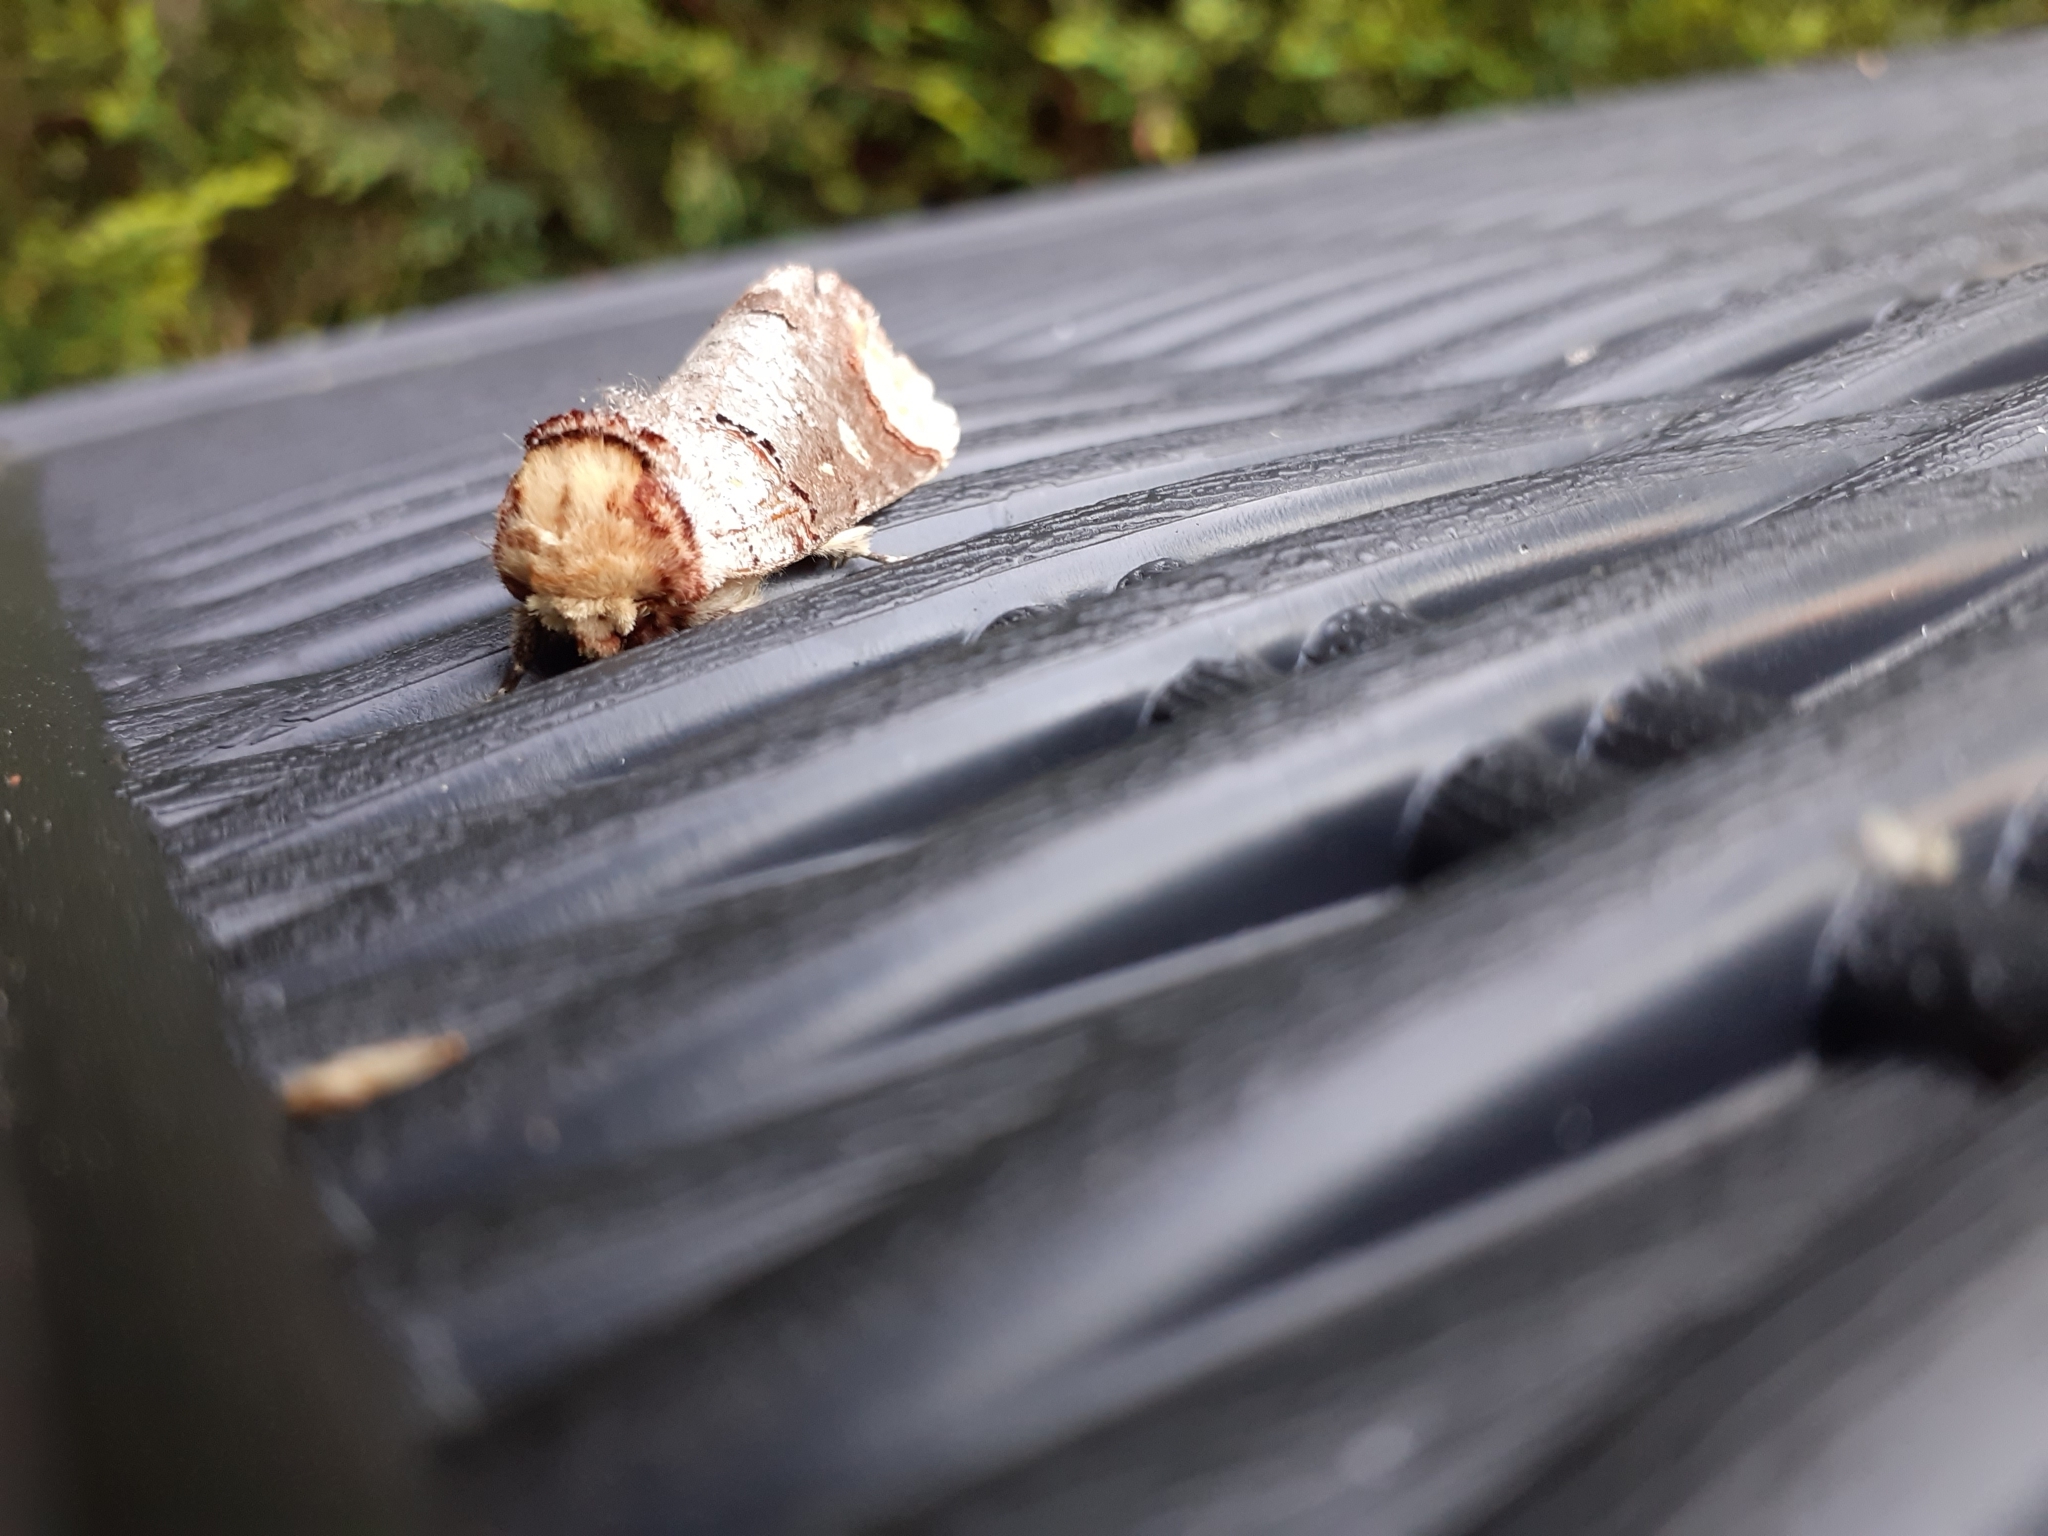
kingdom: Animalia
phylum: Arthropoda
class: Insecta
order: Lepidoptera
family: Notodontidae
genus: Phalera
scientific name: Phalera bucephala
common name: Buff-tip
